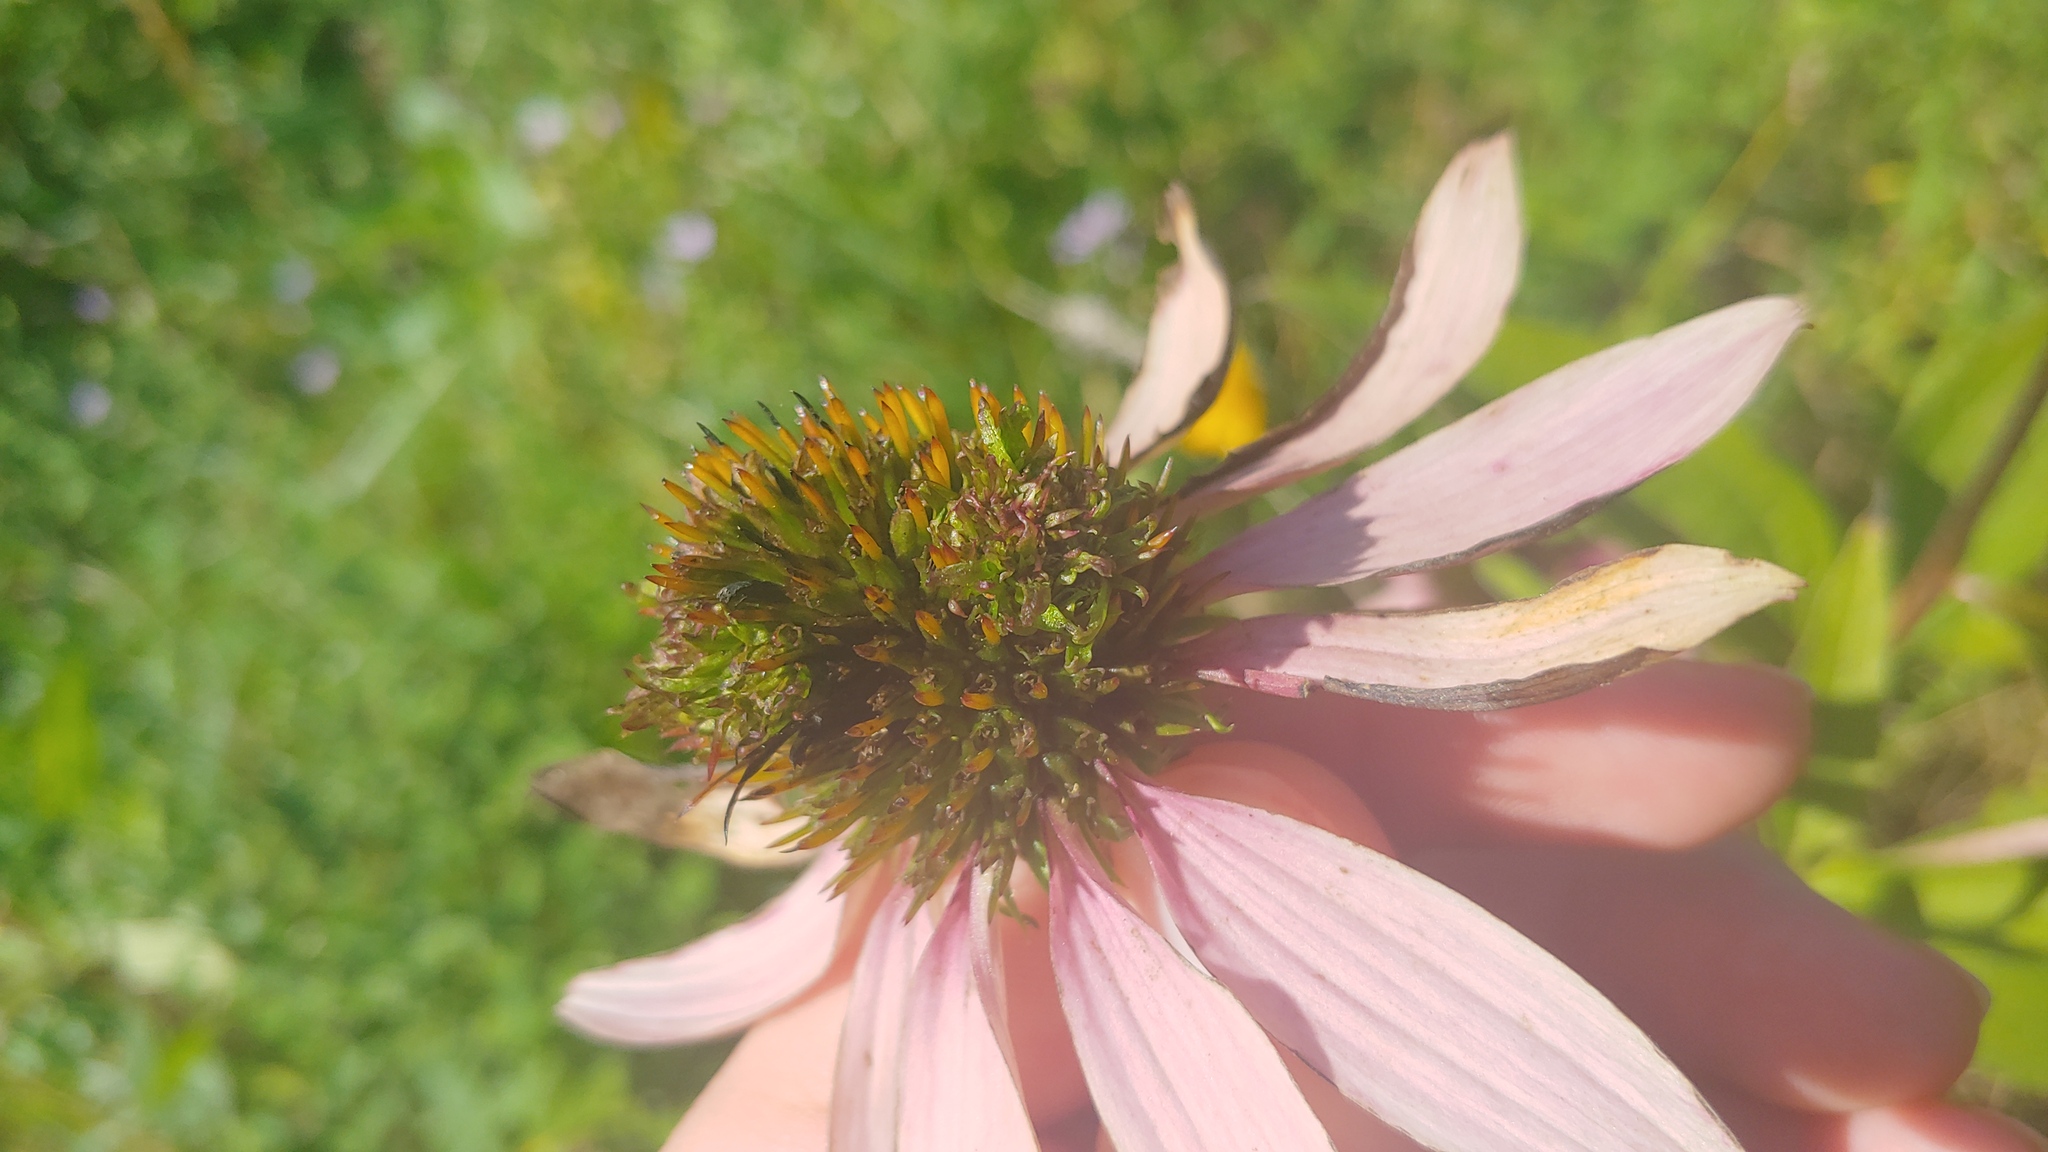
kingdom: Bacteria
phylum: Firmicutes
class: Bacilli
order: Acholeplasmatales
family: Acholeplasmataceae
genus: Phytoplasma
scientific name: Phytoplasma
